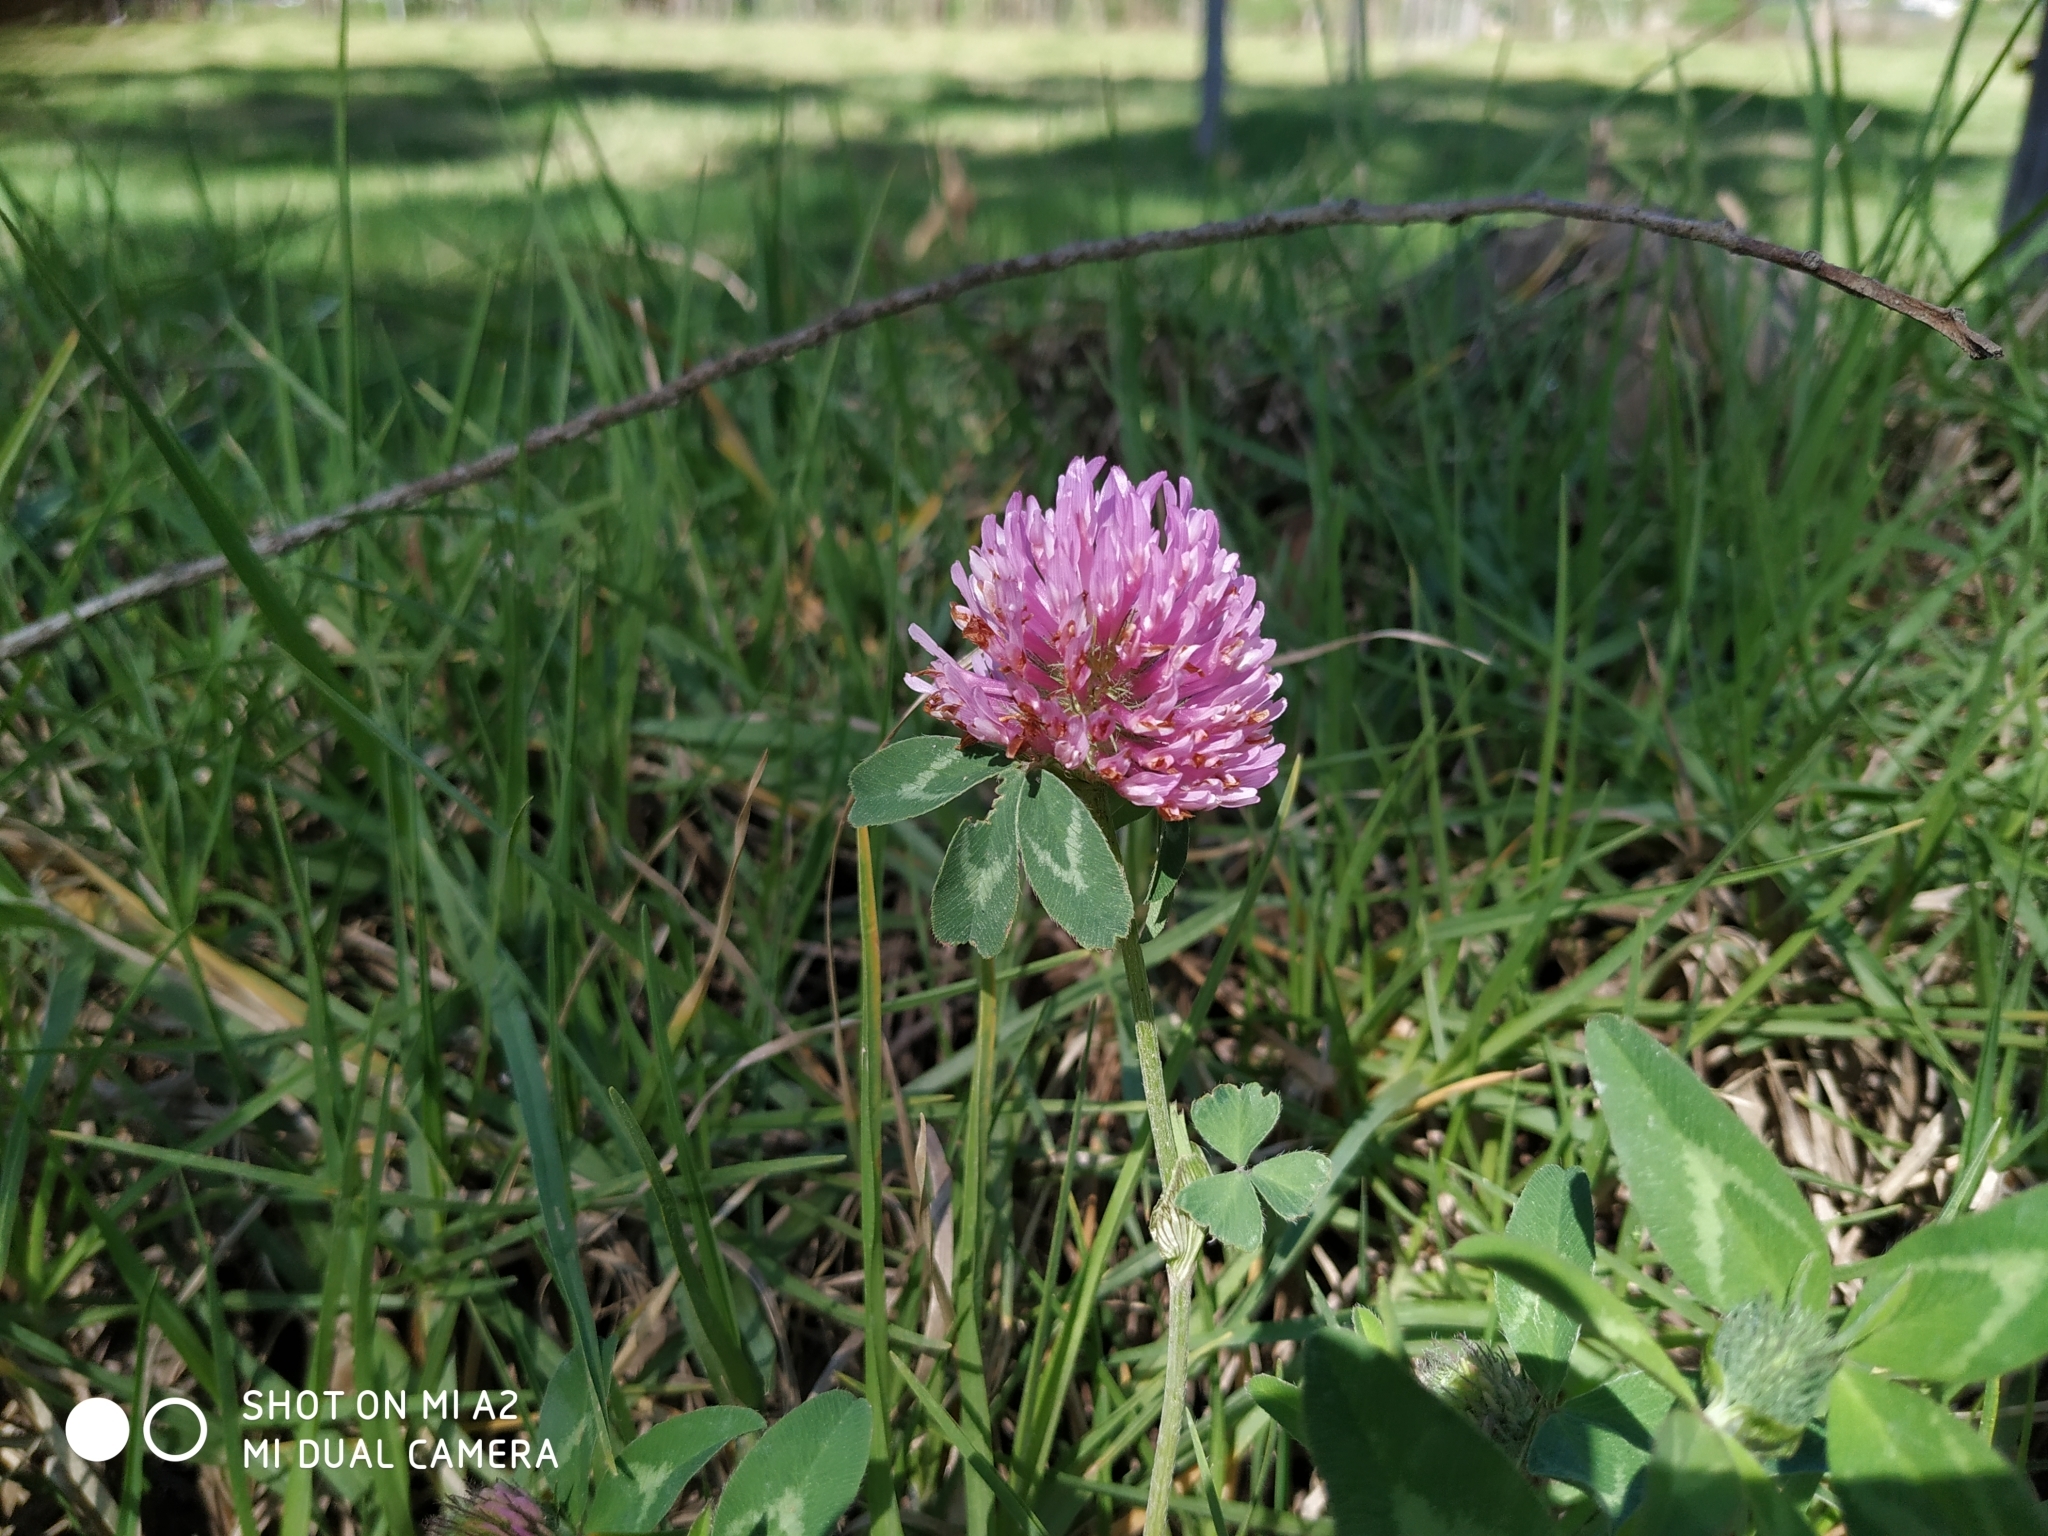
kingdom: Plantae
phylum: Tracheophyta
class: Magnoliopsida
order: Fabales
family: Fabaceae
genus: Trifolium
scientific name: Trifolium pratense
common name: Red clover
